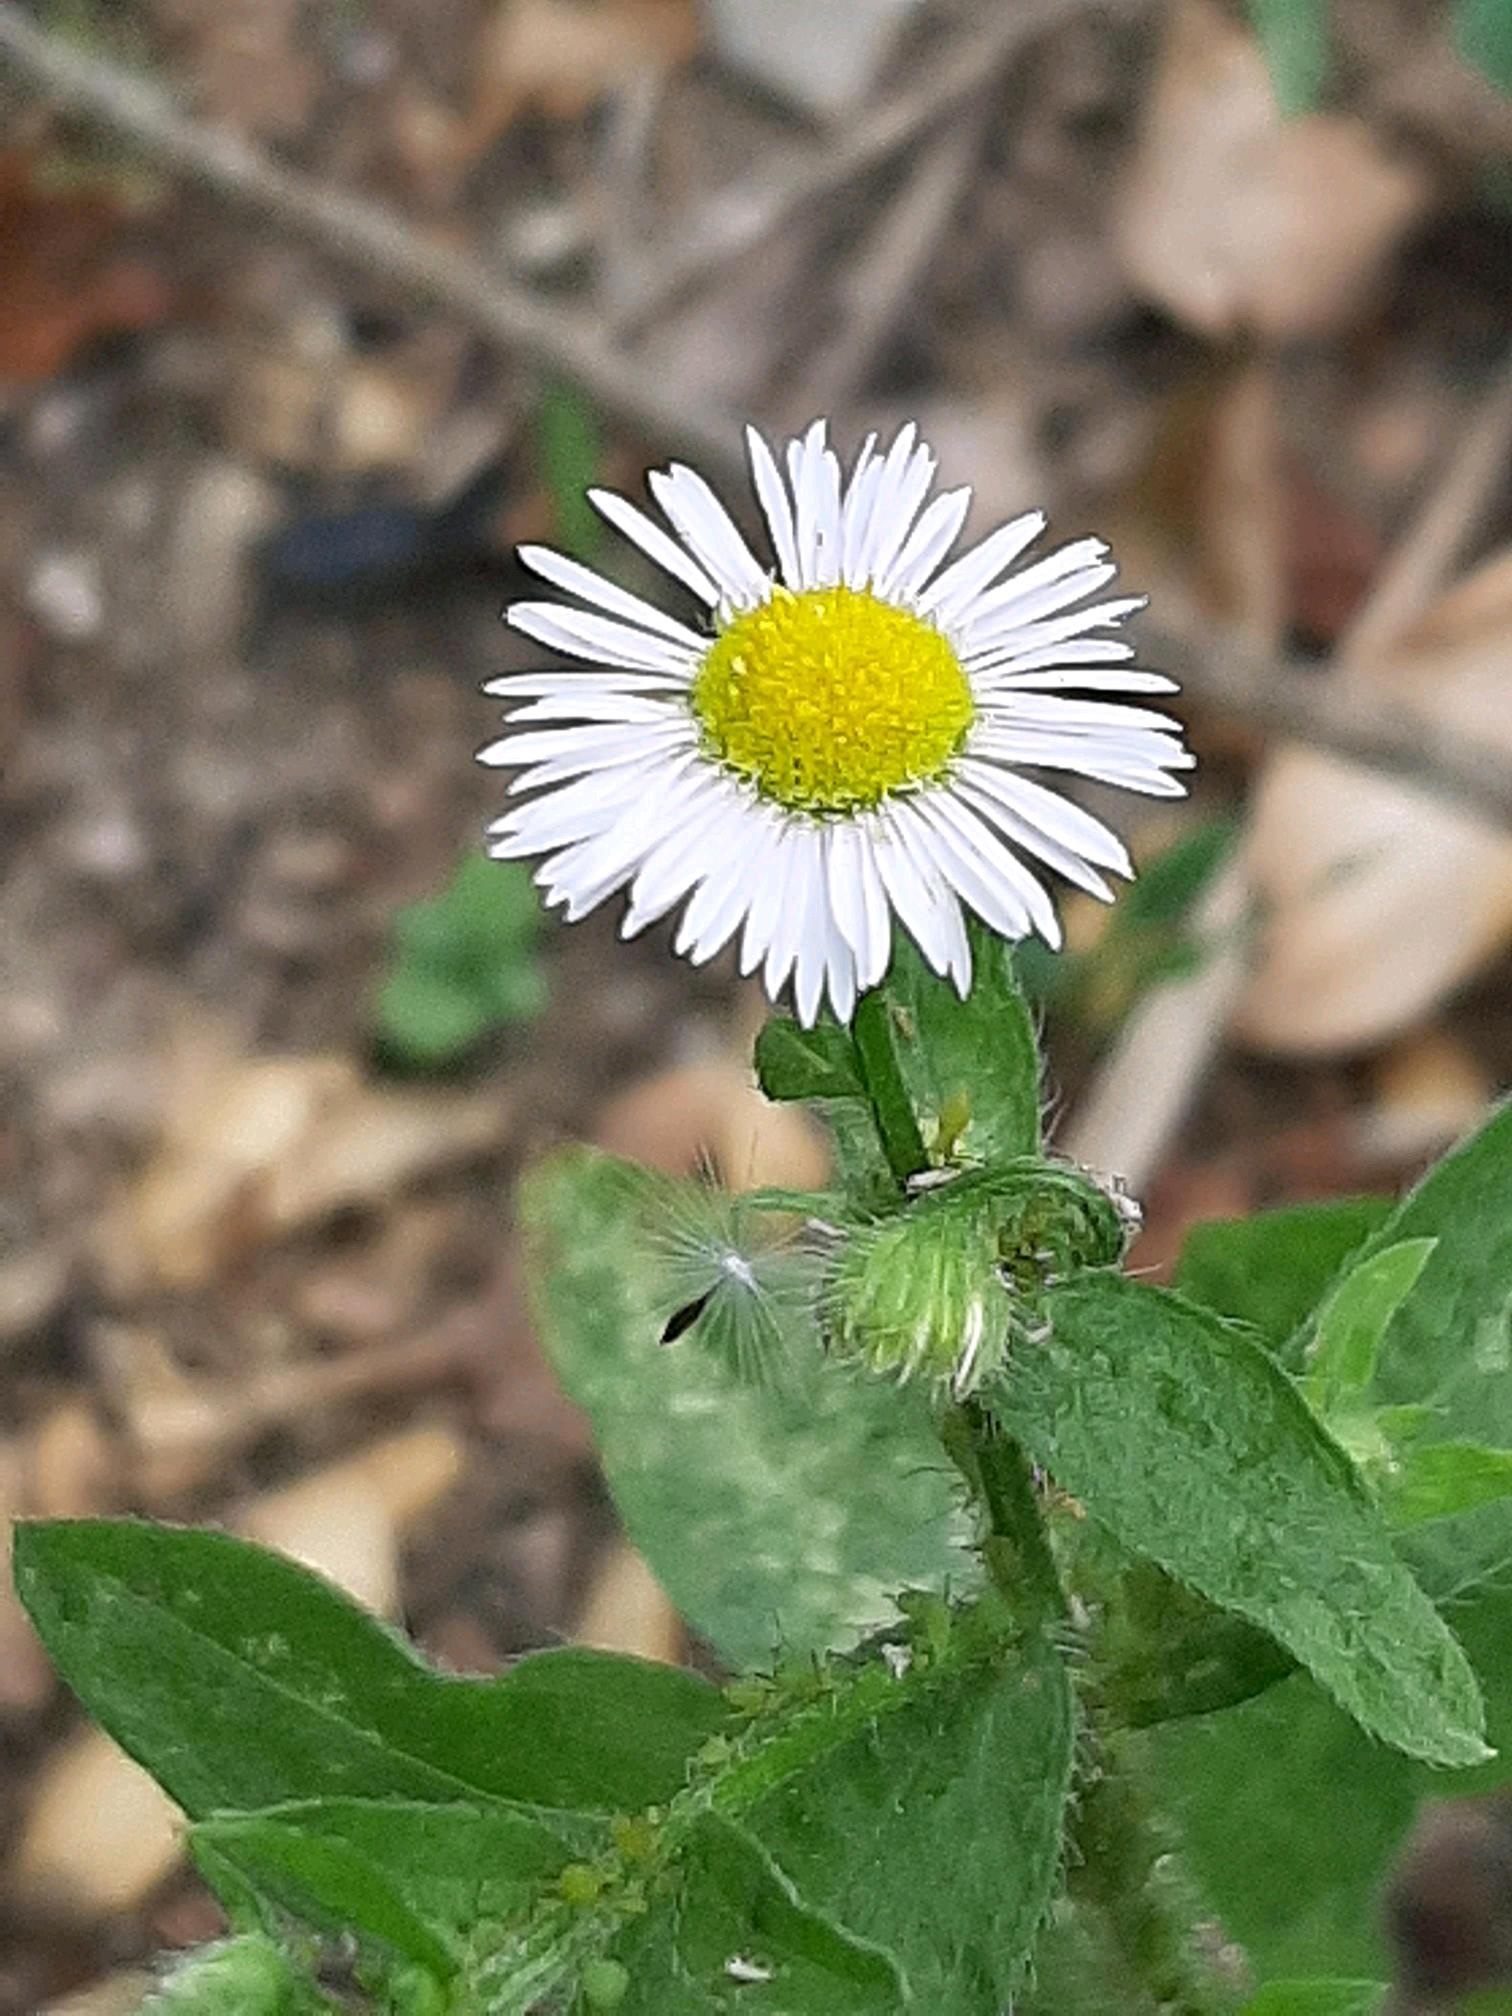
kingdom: Plantae
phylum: Tracheophyta
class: Magnoliopsida
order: Asterales
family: Asteraceae
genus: Erigeron
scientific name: Erigeron annuus
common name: Tall fleabane
